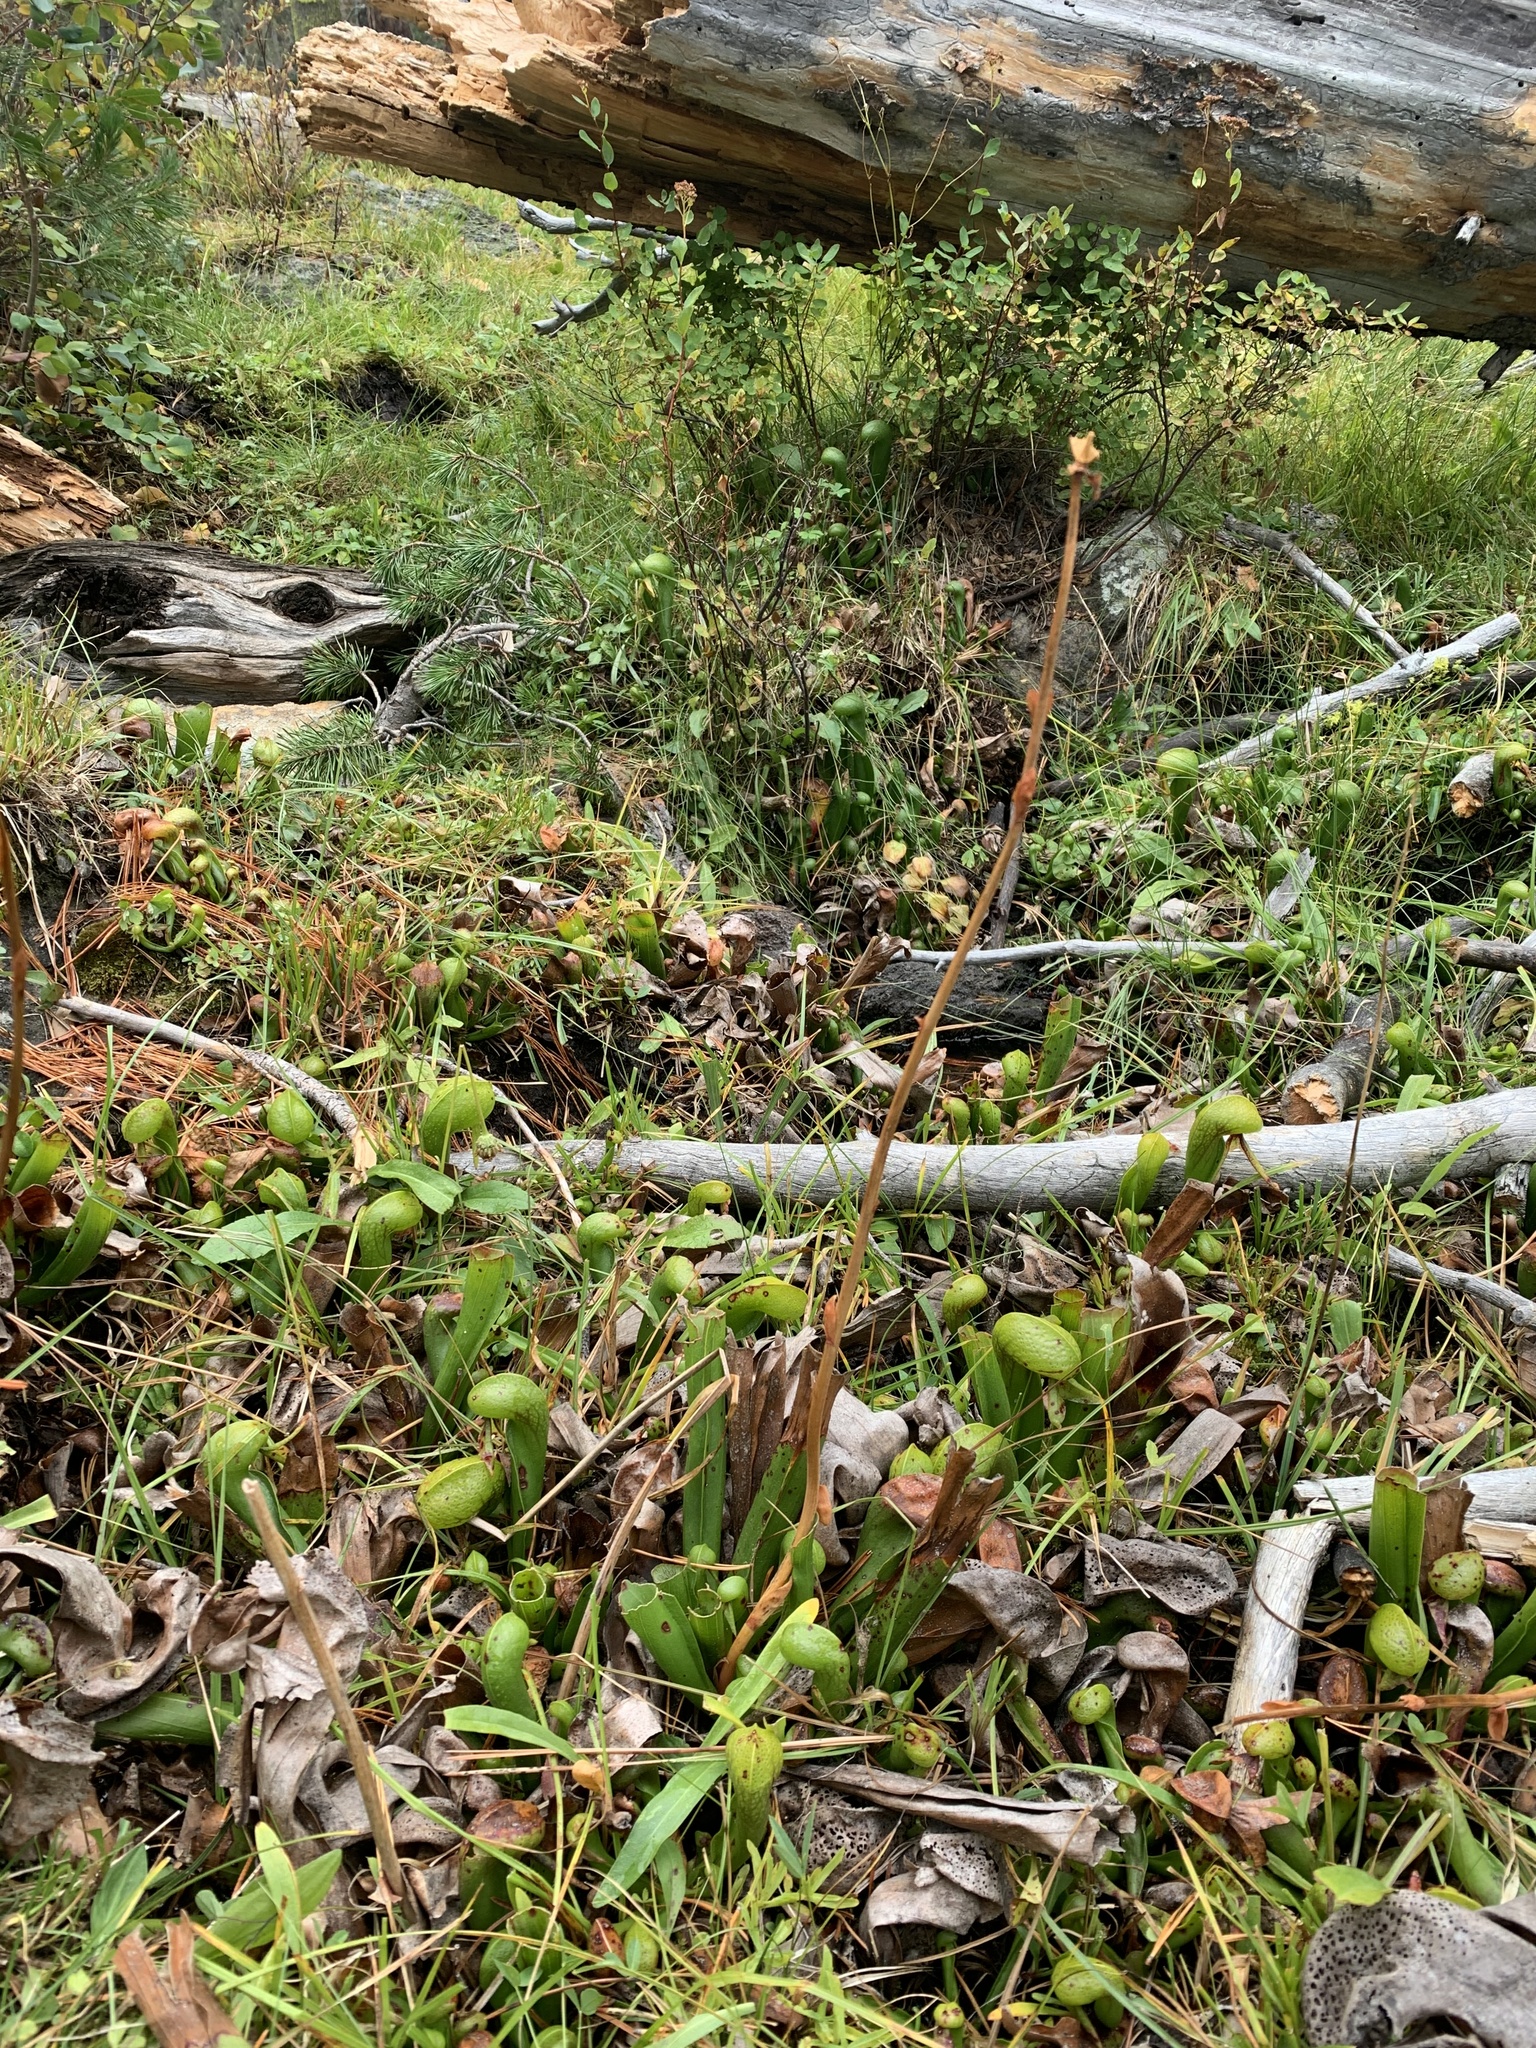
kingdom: Plantae
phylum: Tracheophyta
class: Magnoliopsida
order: Ericales
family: Sarraceniaceae
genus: Darlingtonia
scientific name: Darlingtonia californica
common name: California pitcher plant
